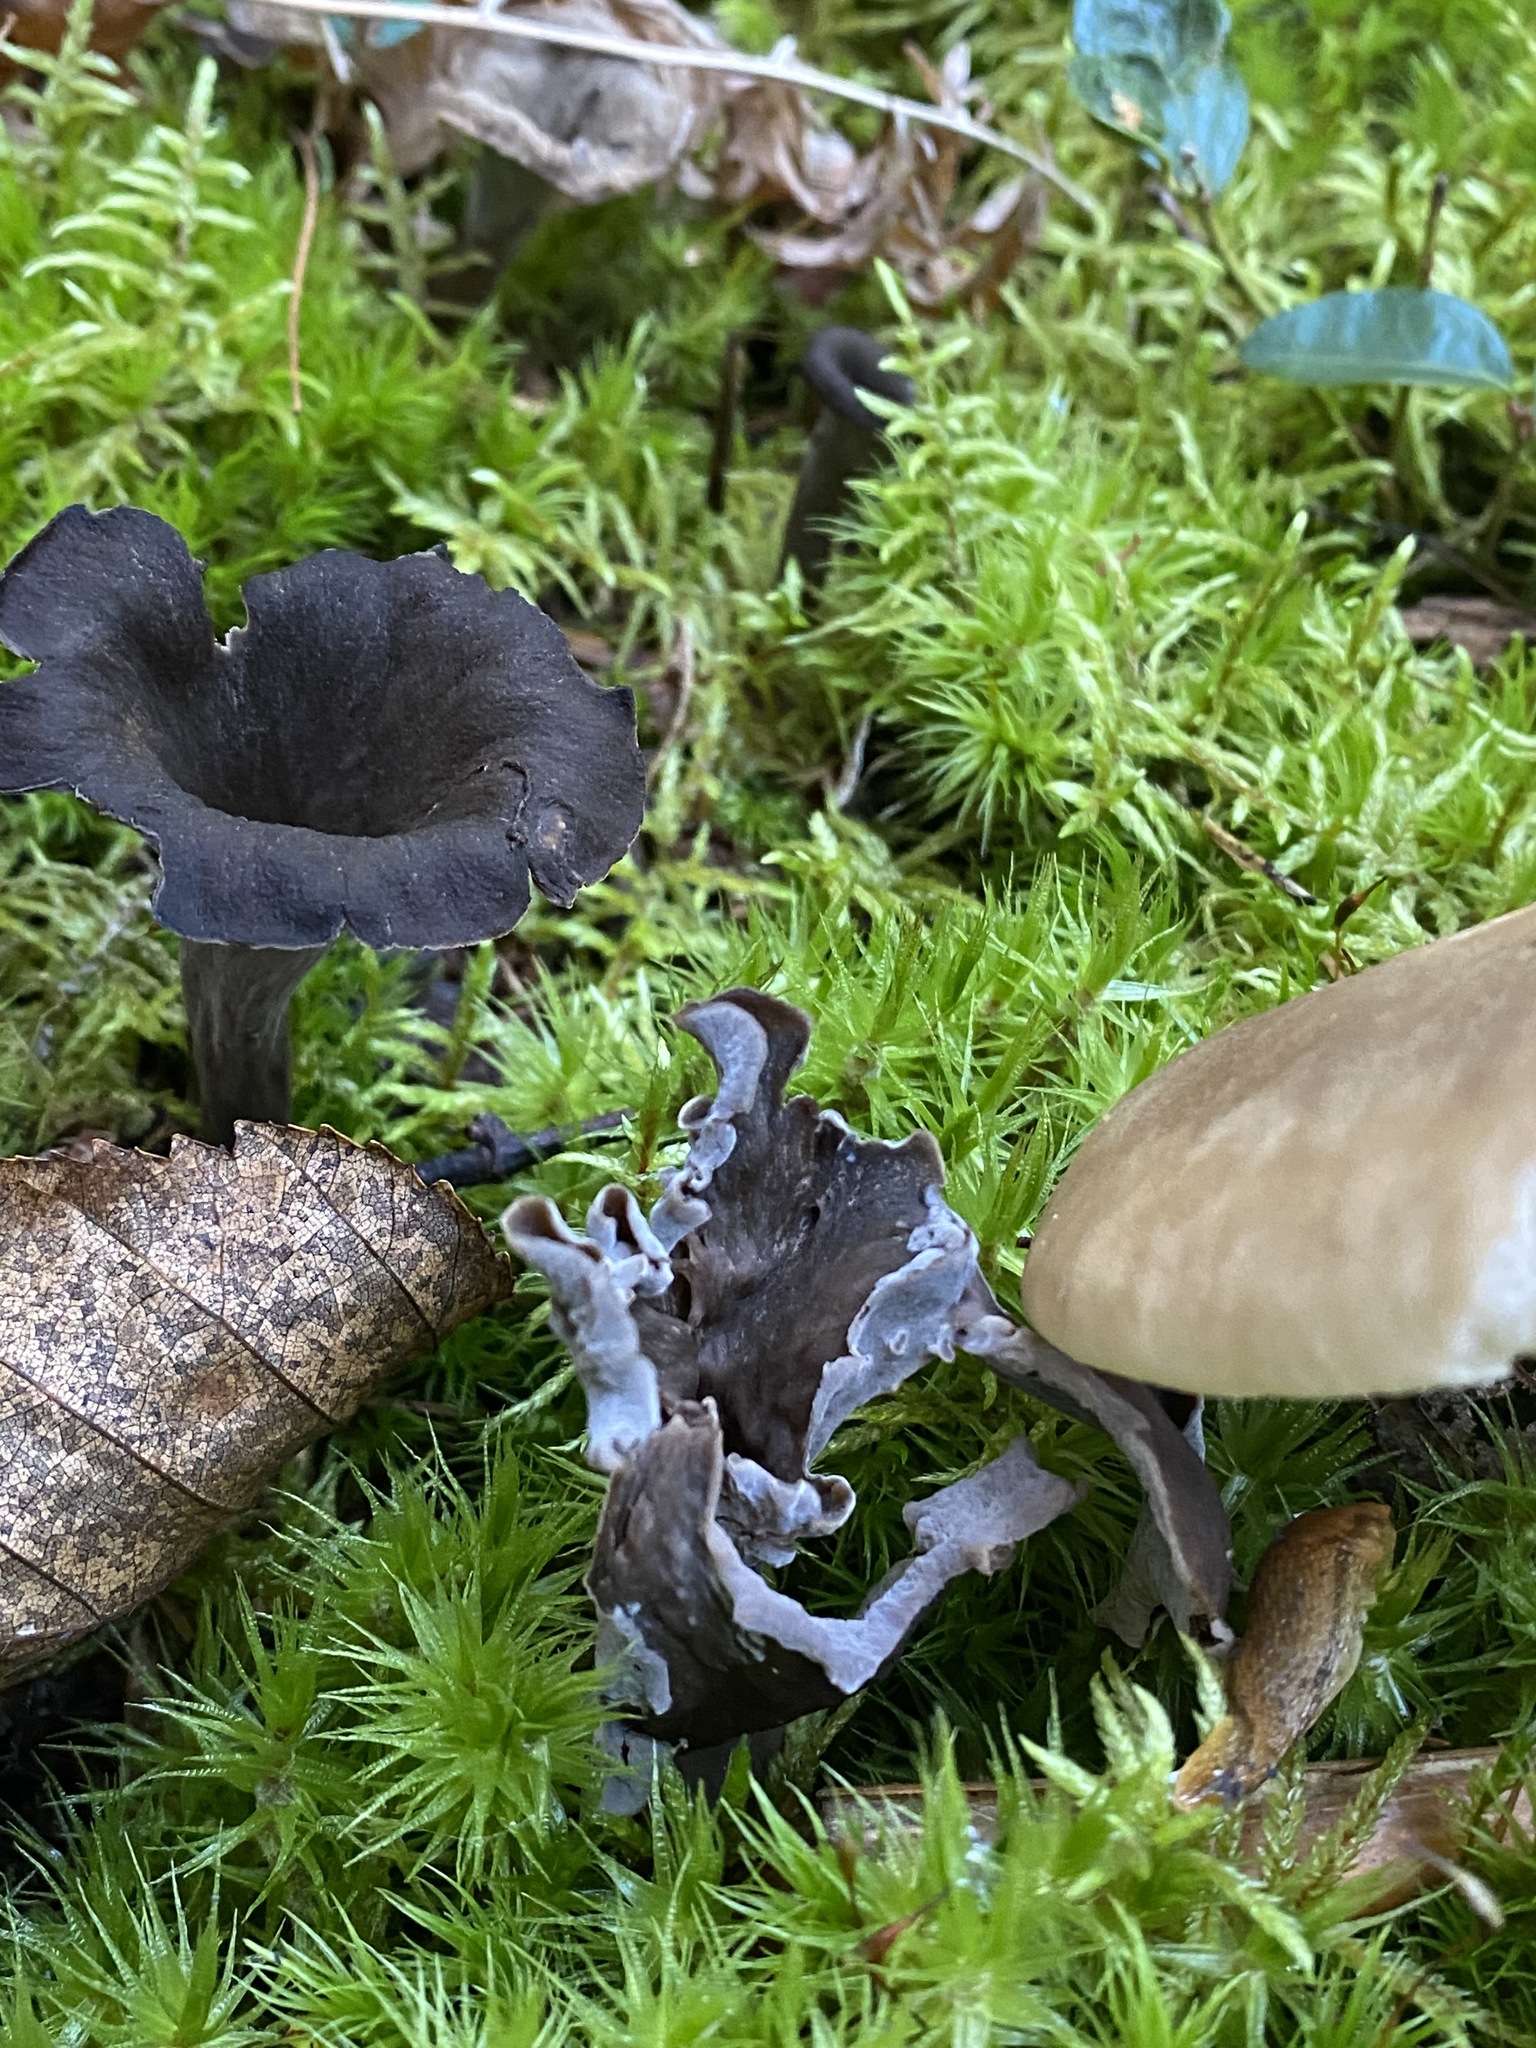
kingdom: Fungi
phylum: Basidiomycota
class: Agaricomycetes
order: Cantharellales
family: Hydnaceae
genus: Craterellus
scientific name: Craterellus cornucopioides
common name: Horn of plenty
